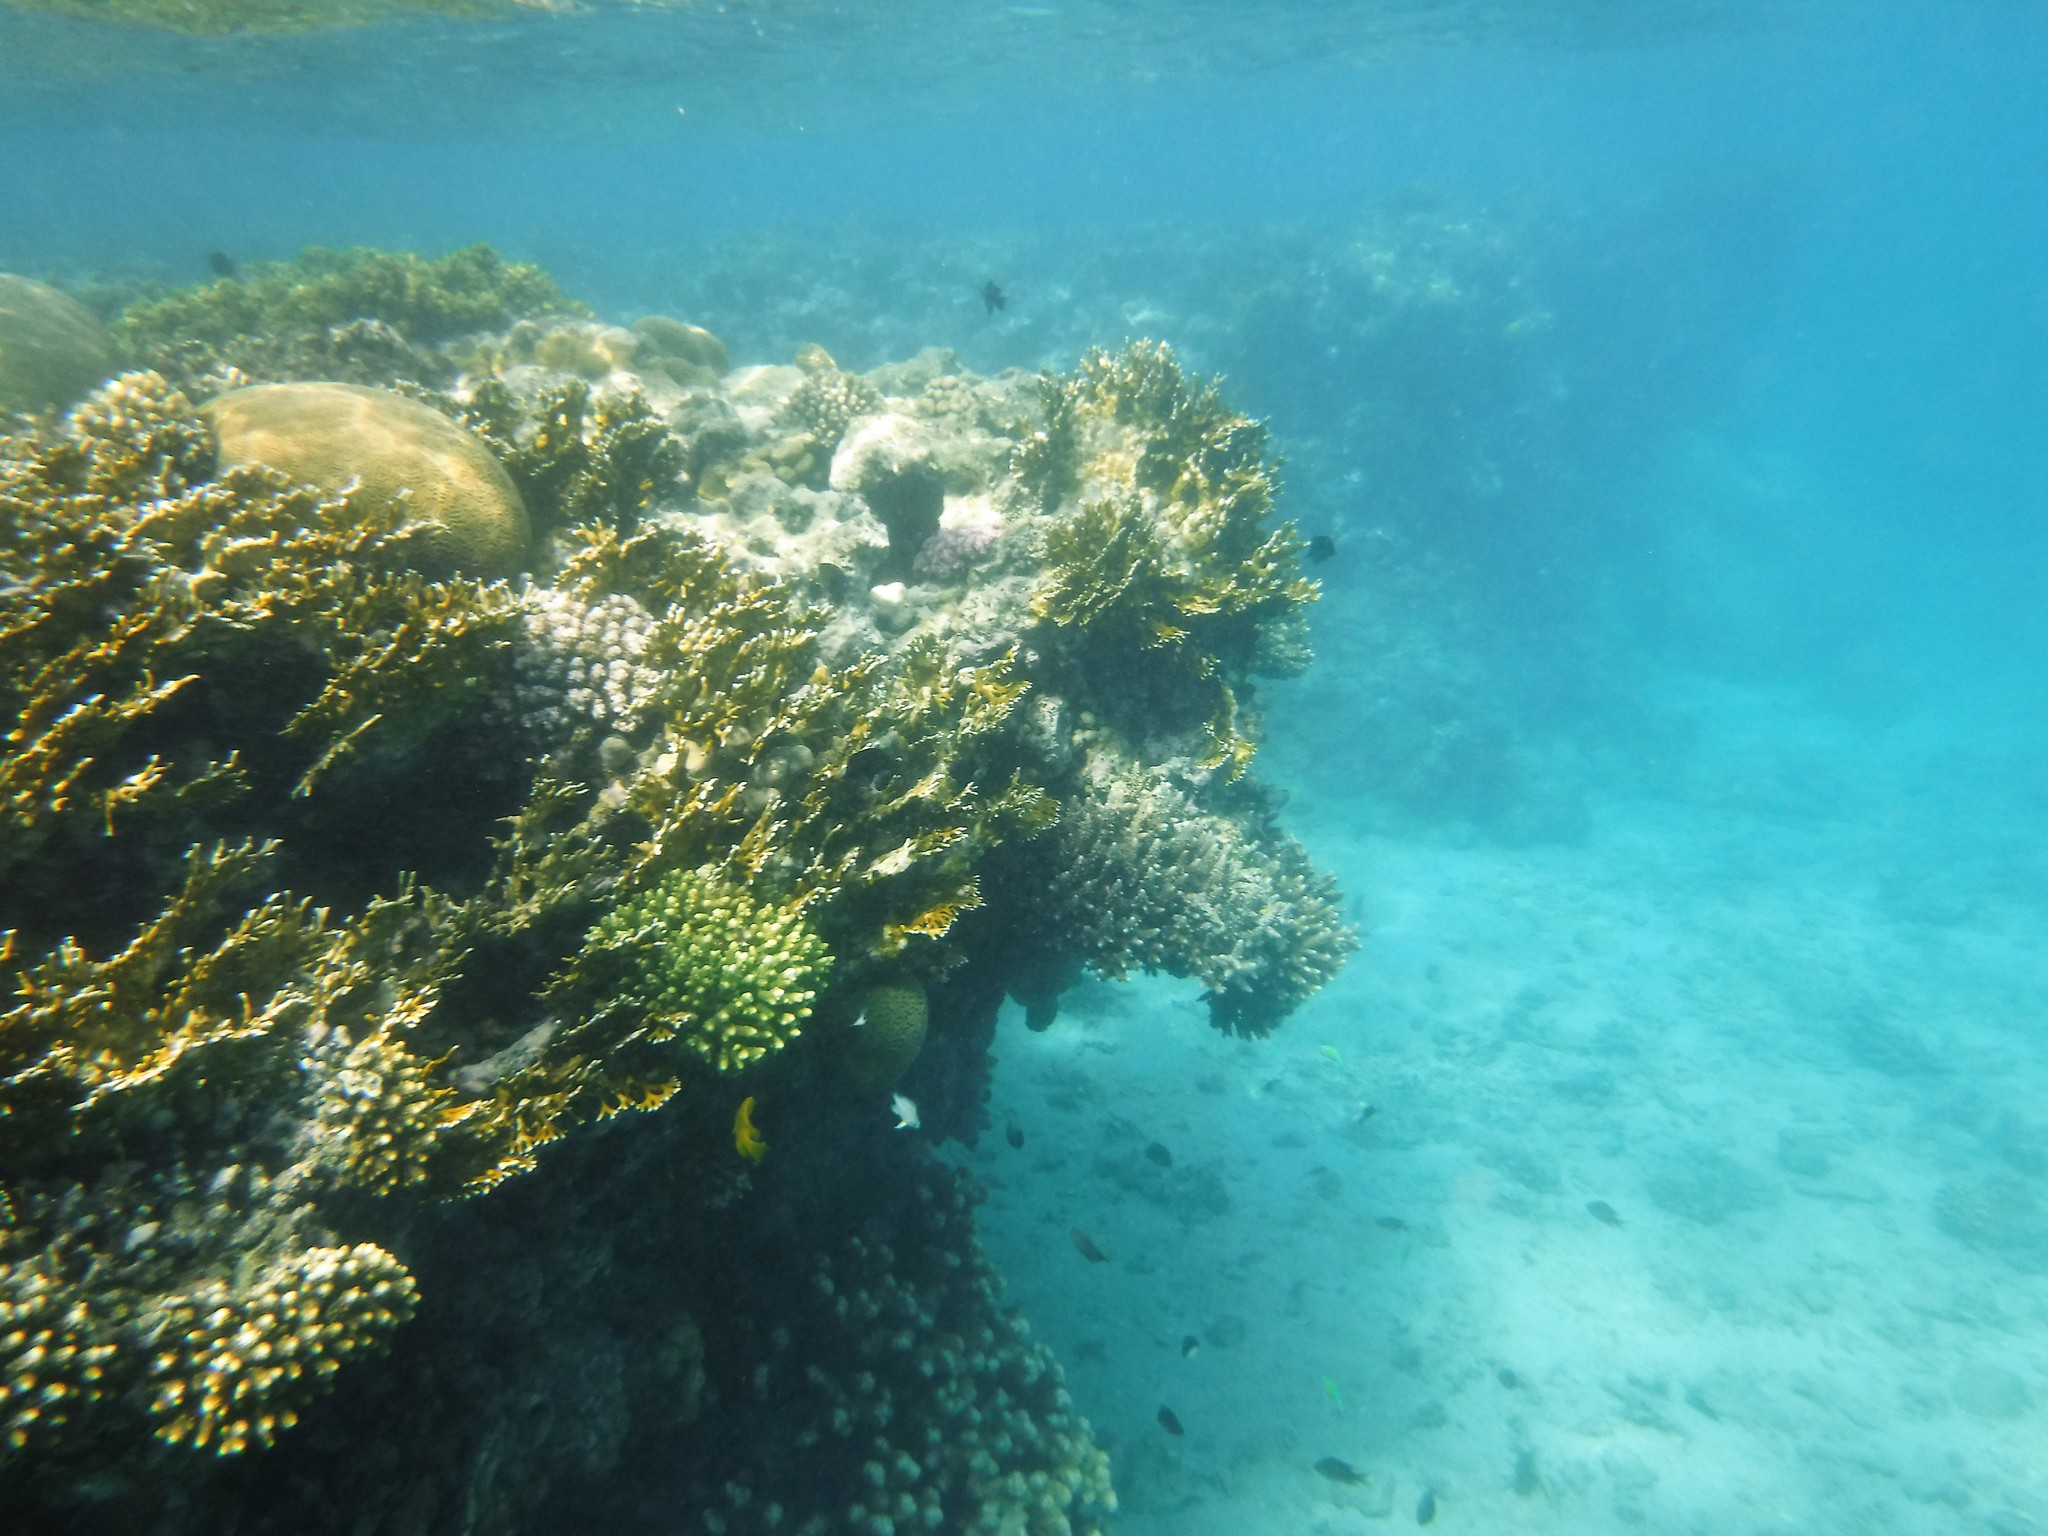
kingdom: Animalia
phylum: Cnidaria
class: Hydrozoa
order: Anthoathecata
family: Milleporidae
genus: Millepora
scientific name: Millepora dichotoma
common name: Ramified fire coral
